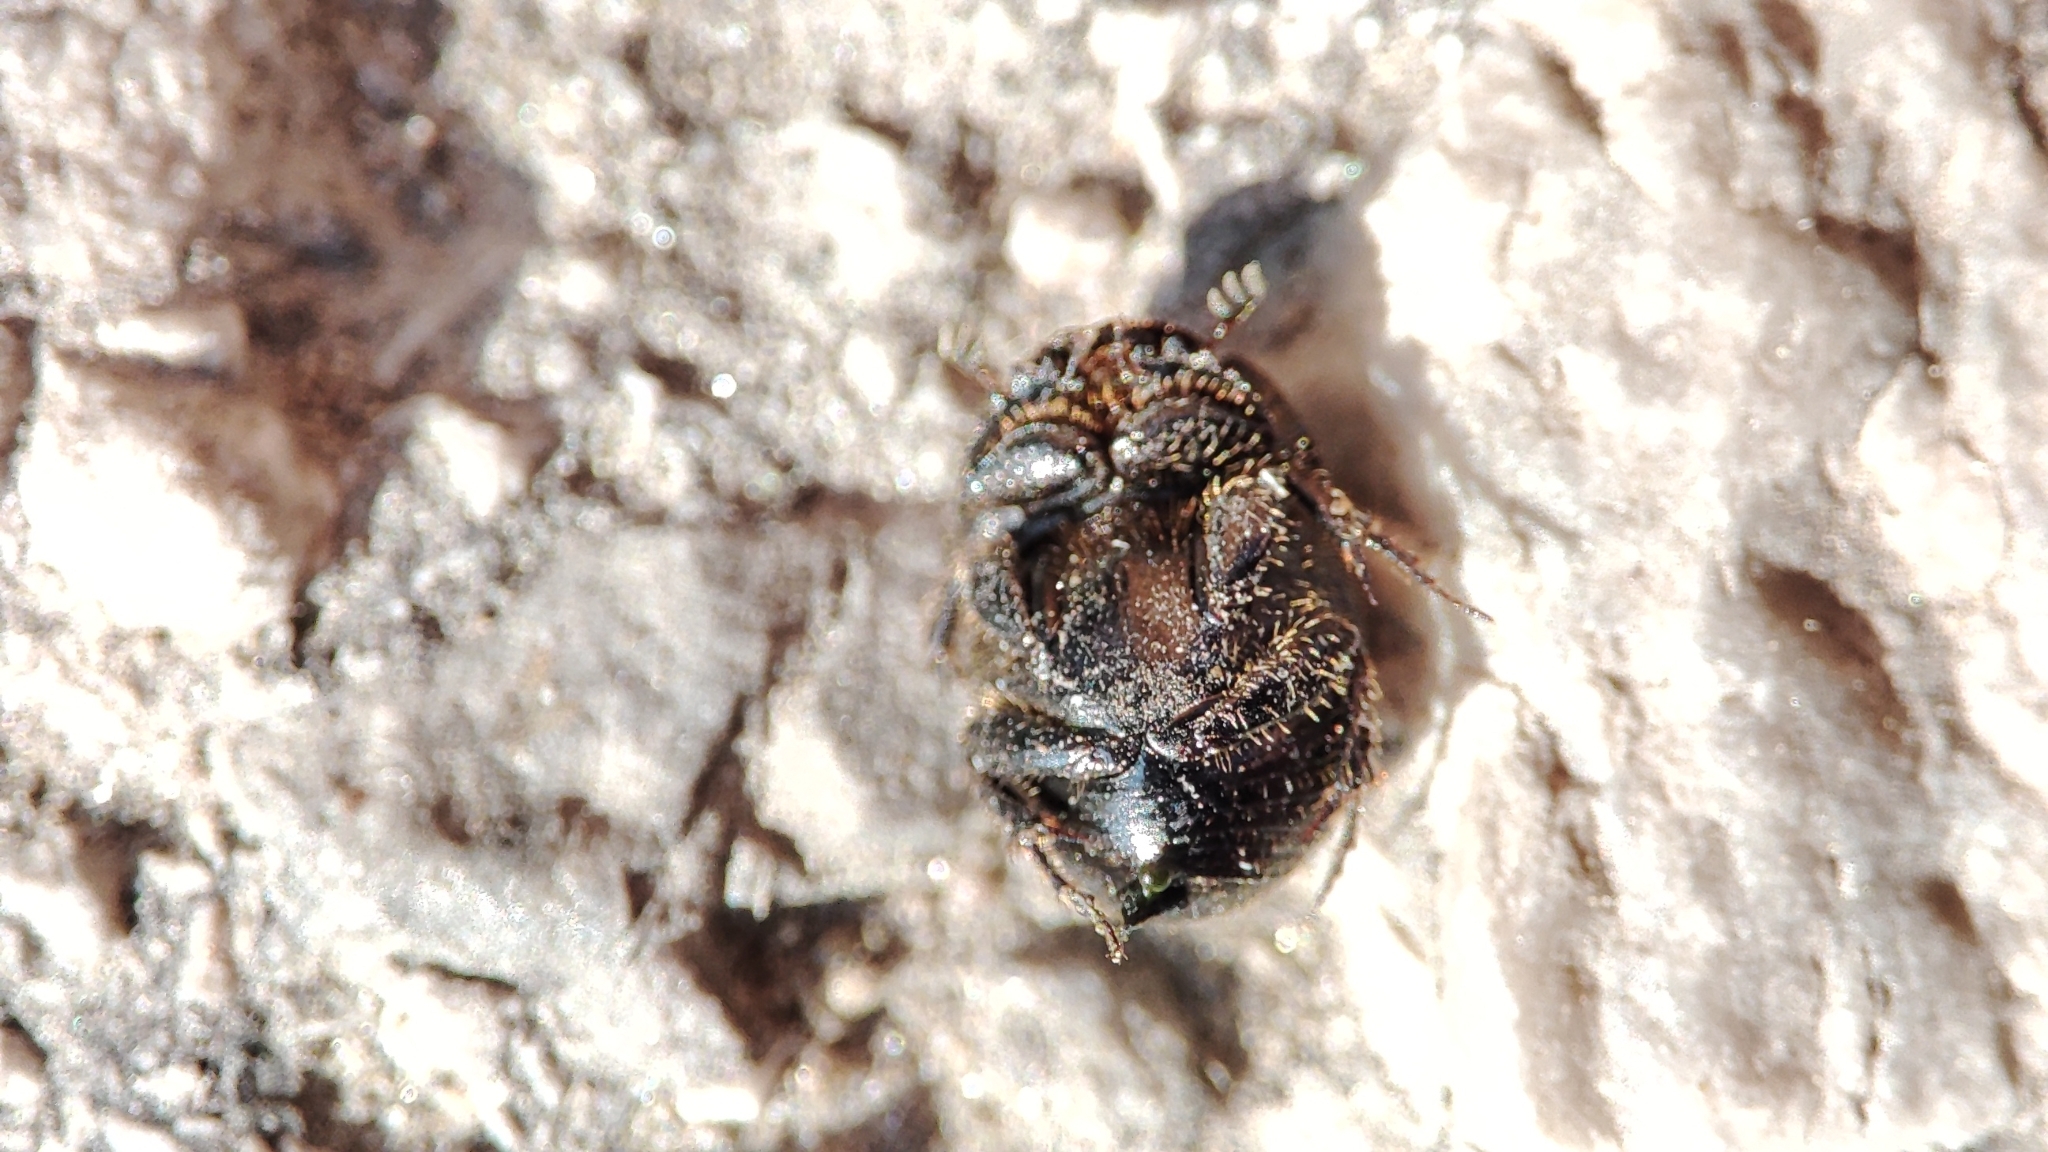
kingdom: Animalia
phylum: Arthropoda
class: Insecta
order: Coleoptera
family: Scarabaeidae
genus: Onthophagus
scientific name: Onthophagus ovatus
